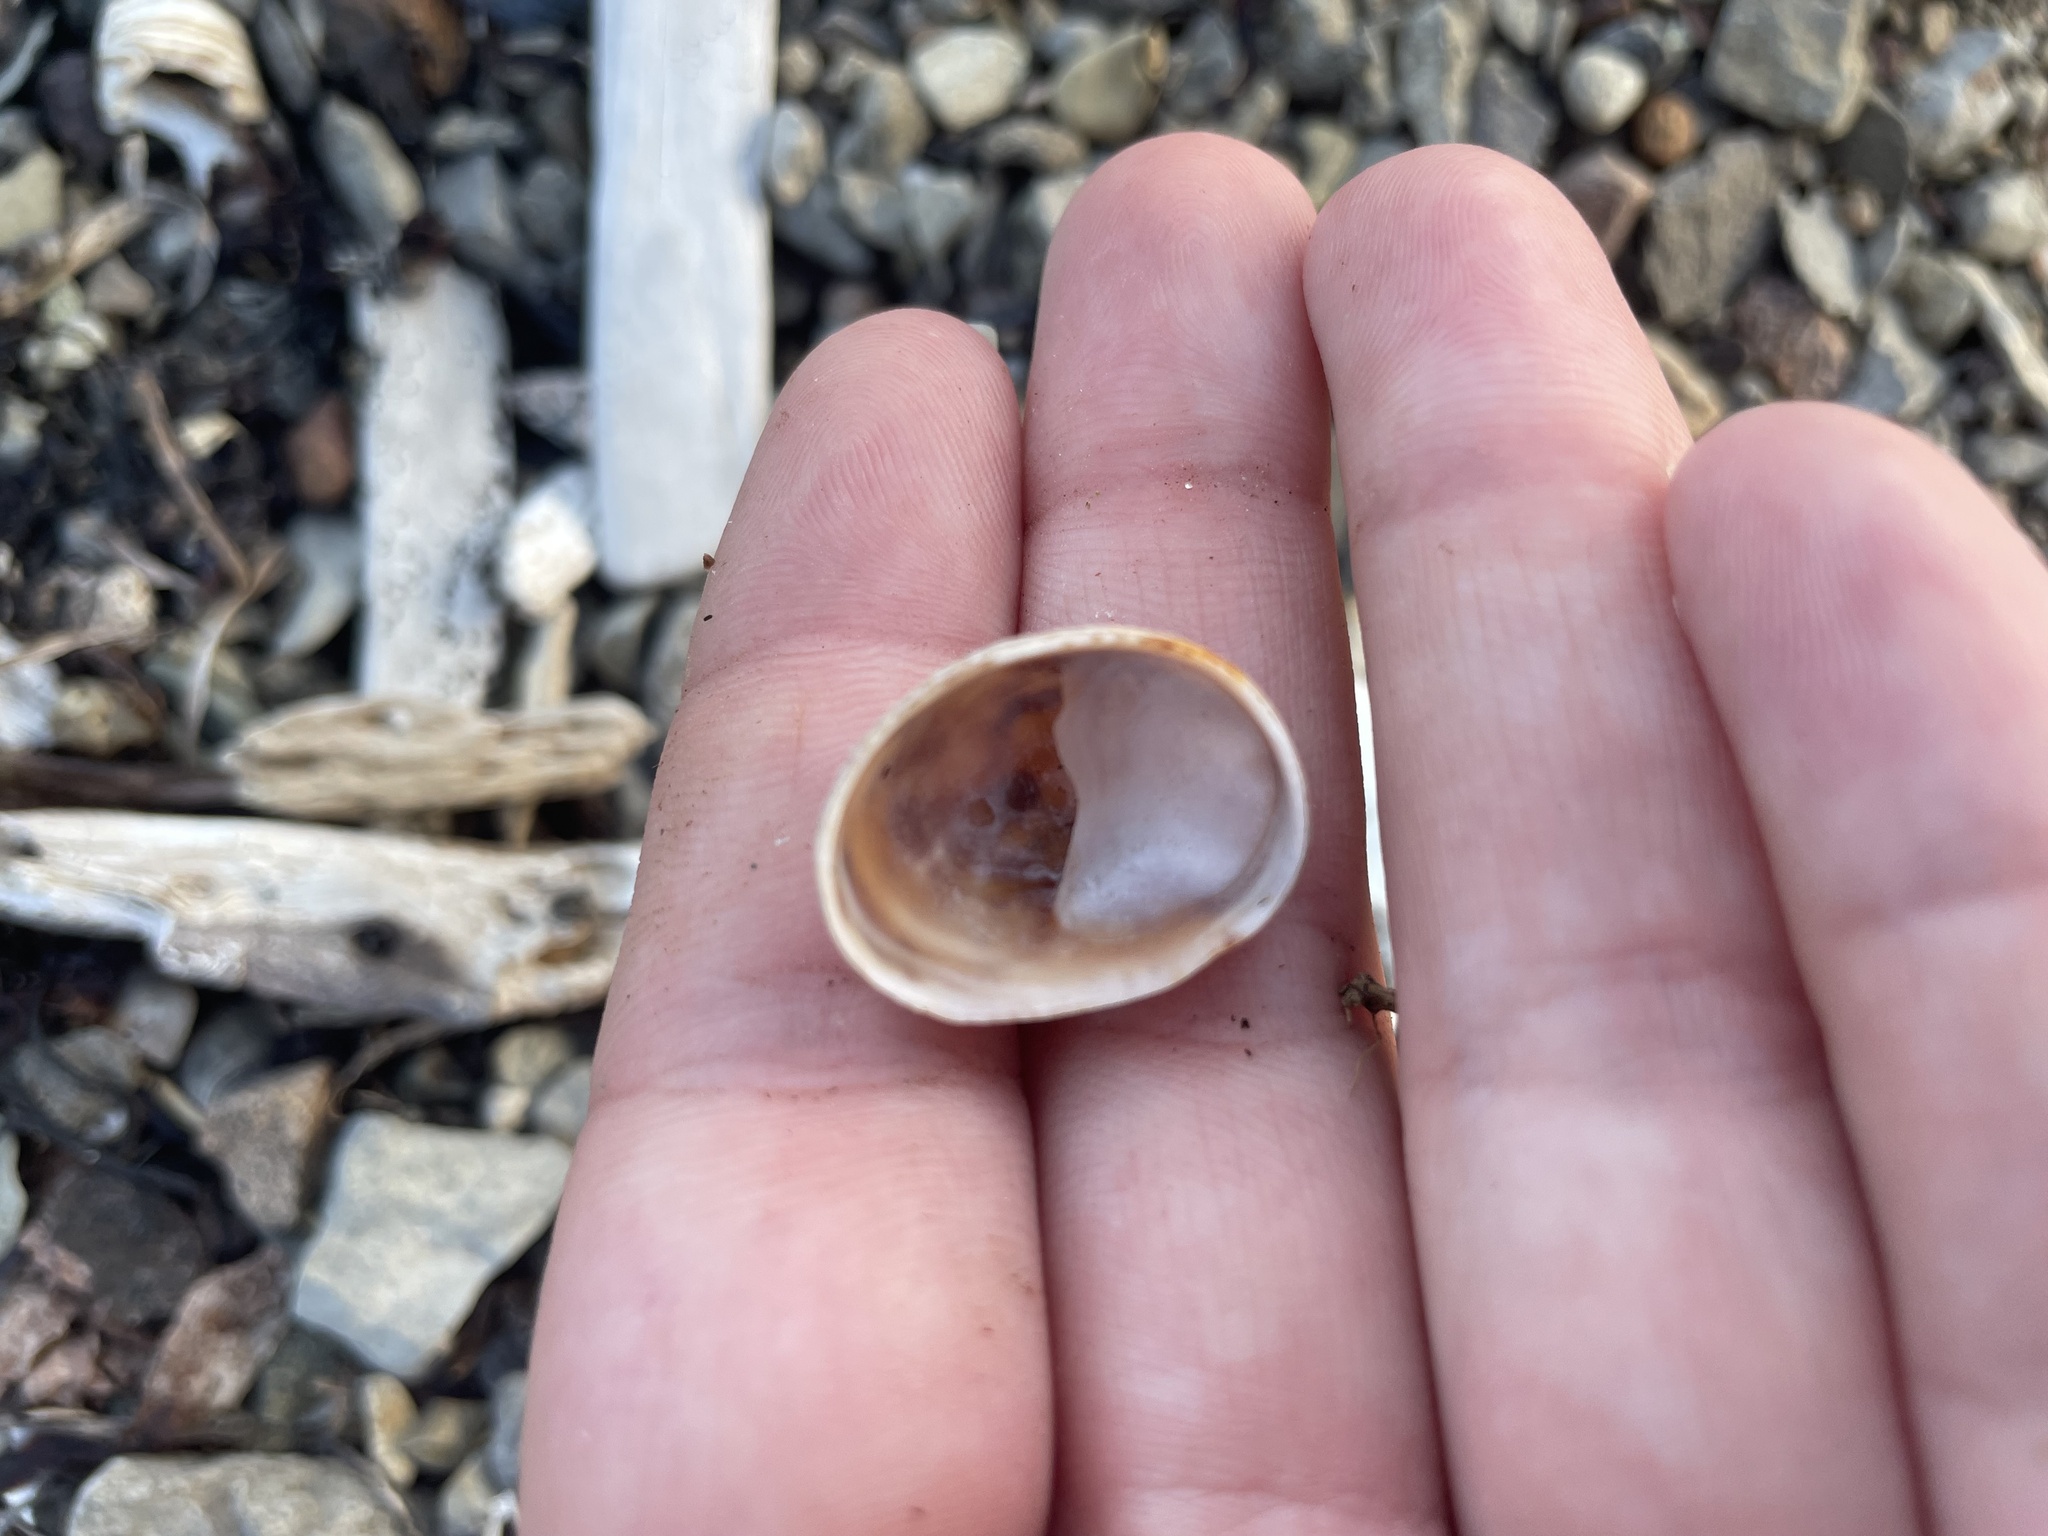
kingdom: Animalia
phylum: Mollusca
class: Gastropoda
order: Littorinimorpha
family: Calyptraeidae
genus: Crepidula
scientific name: Crepidula fornicata
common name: Slipper limpet
